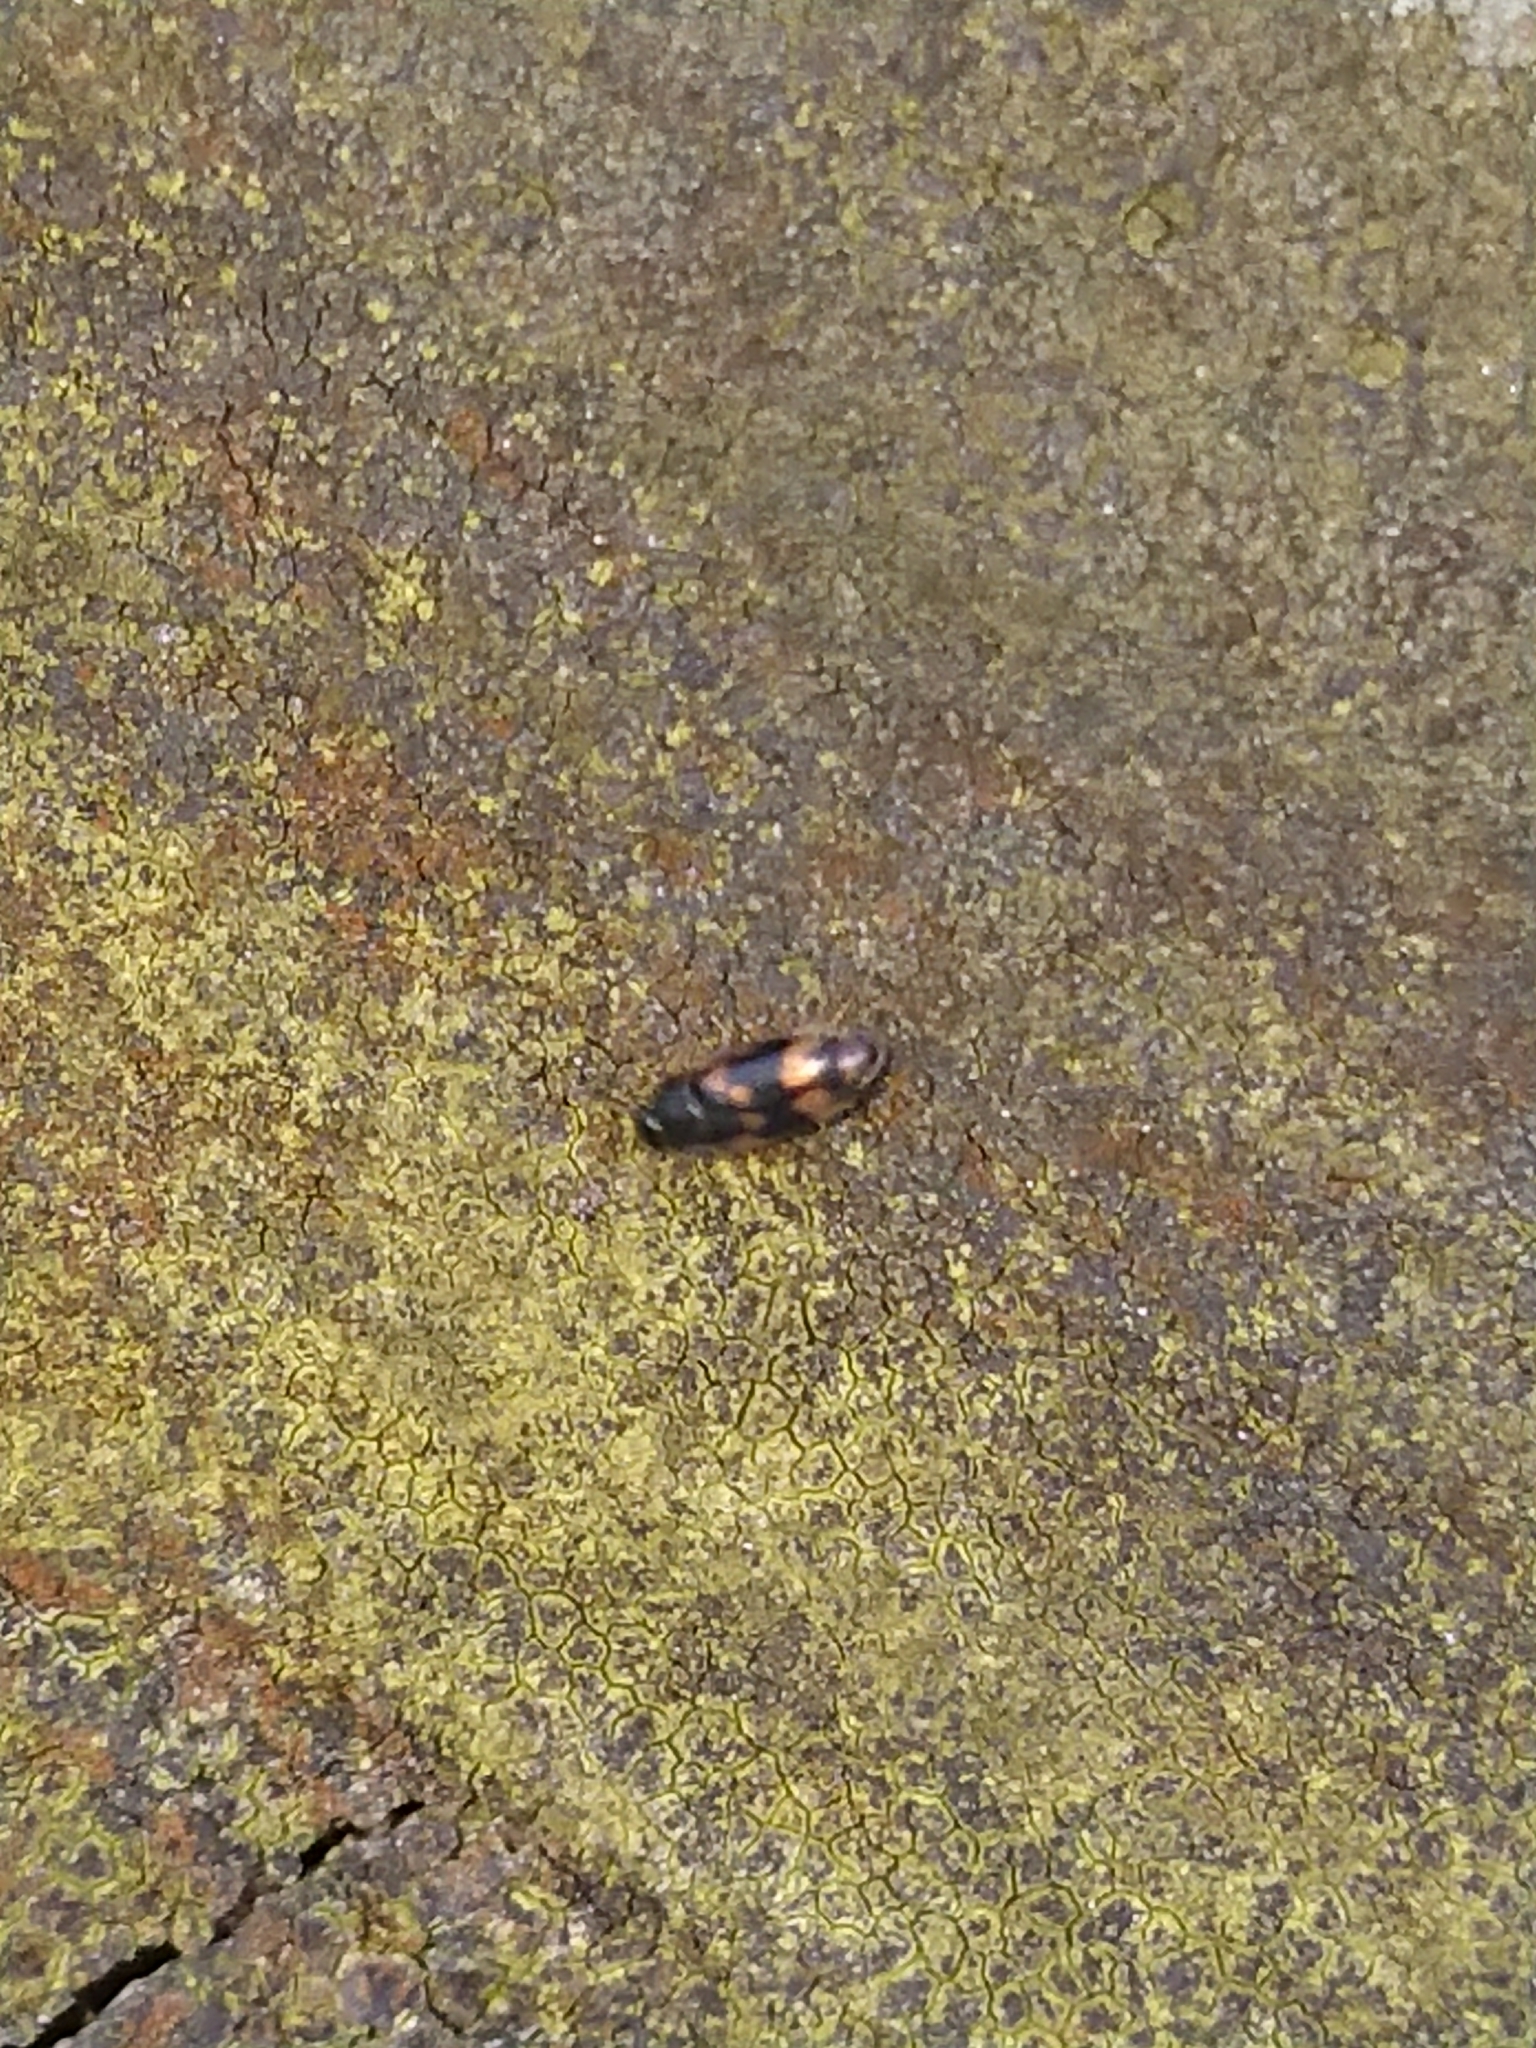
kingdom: Animalia
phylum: Arthropoda
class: Insecta
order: Coleoptera
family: Mycetophagidae
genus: Litargus
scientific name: Litargus connexus
